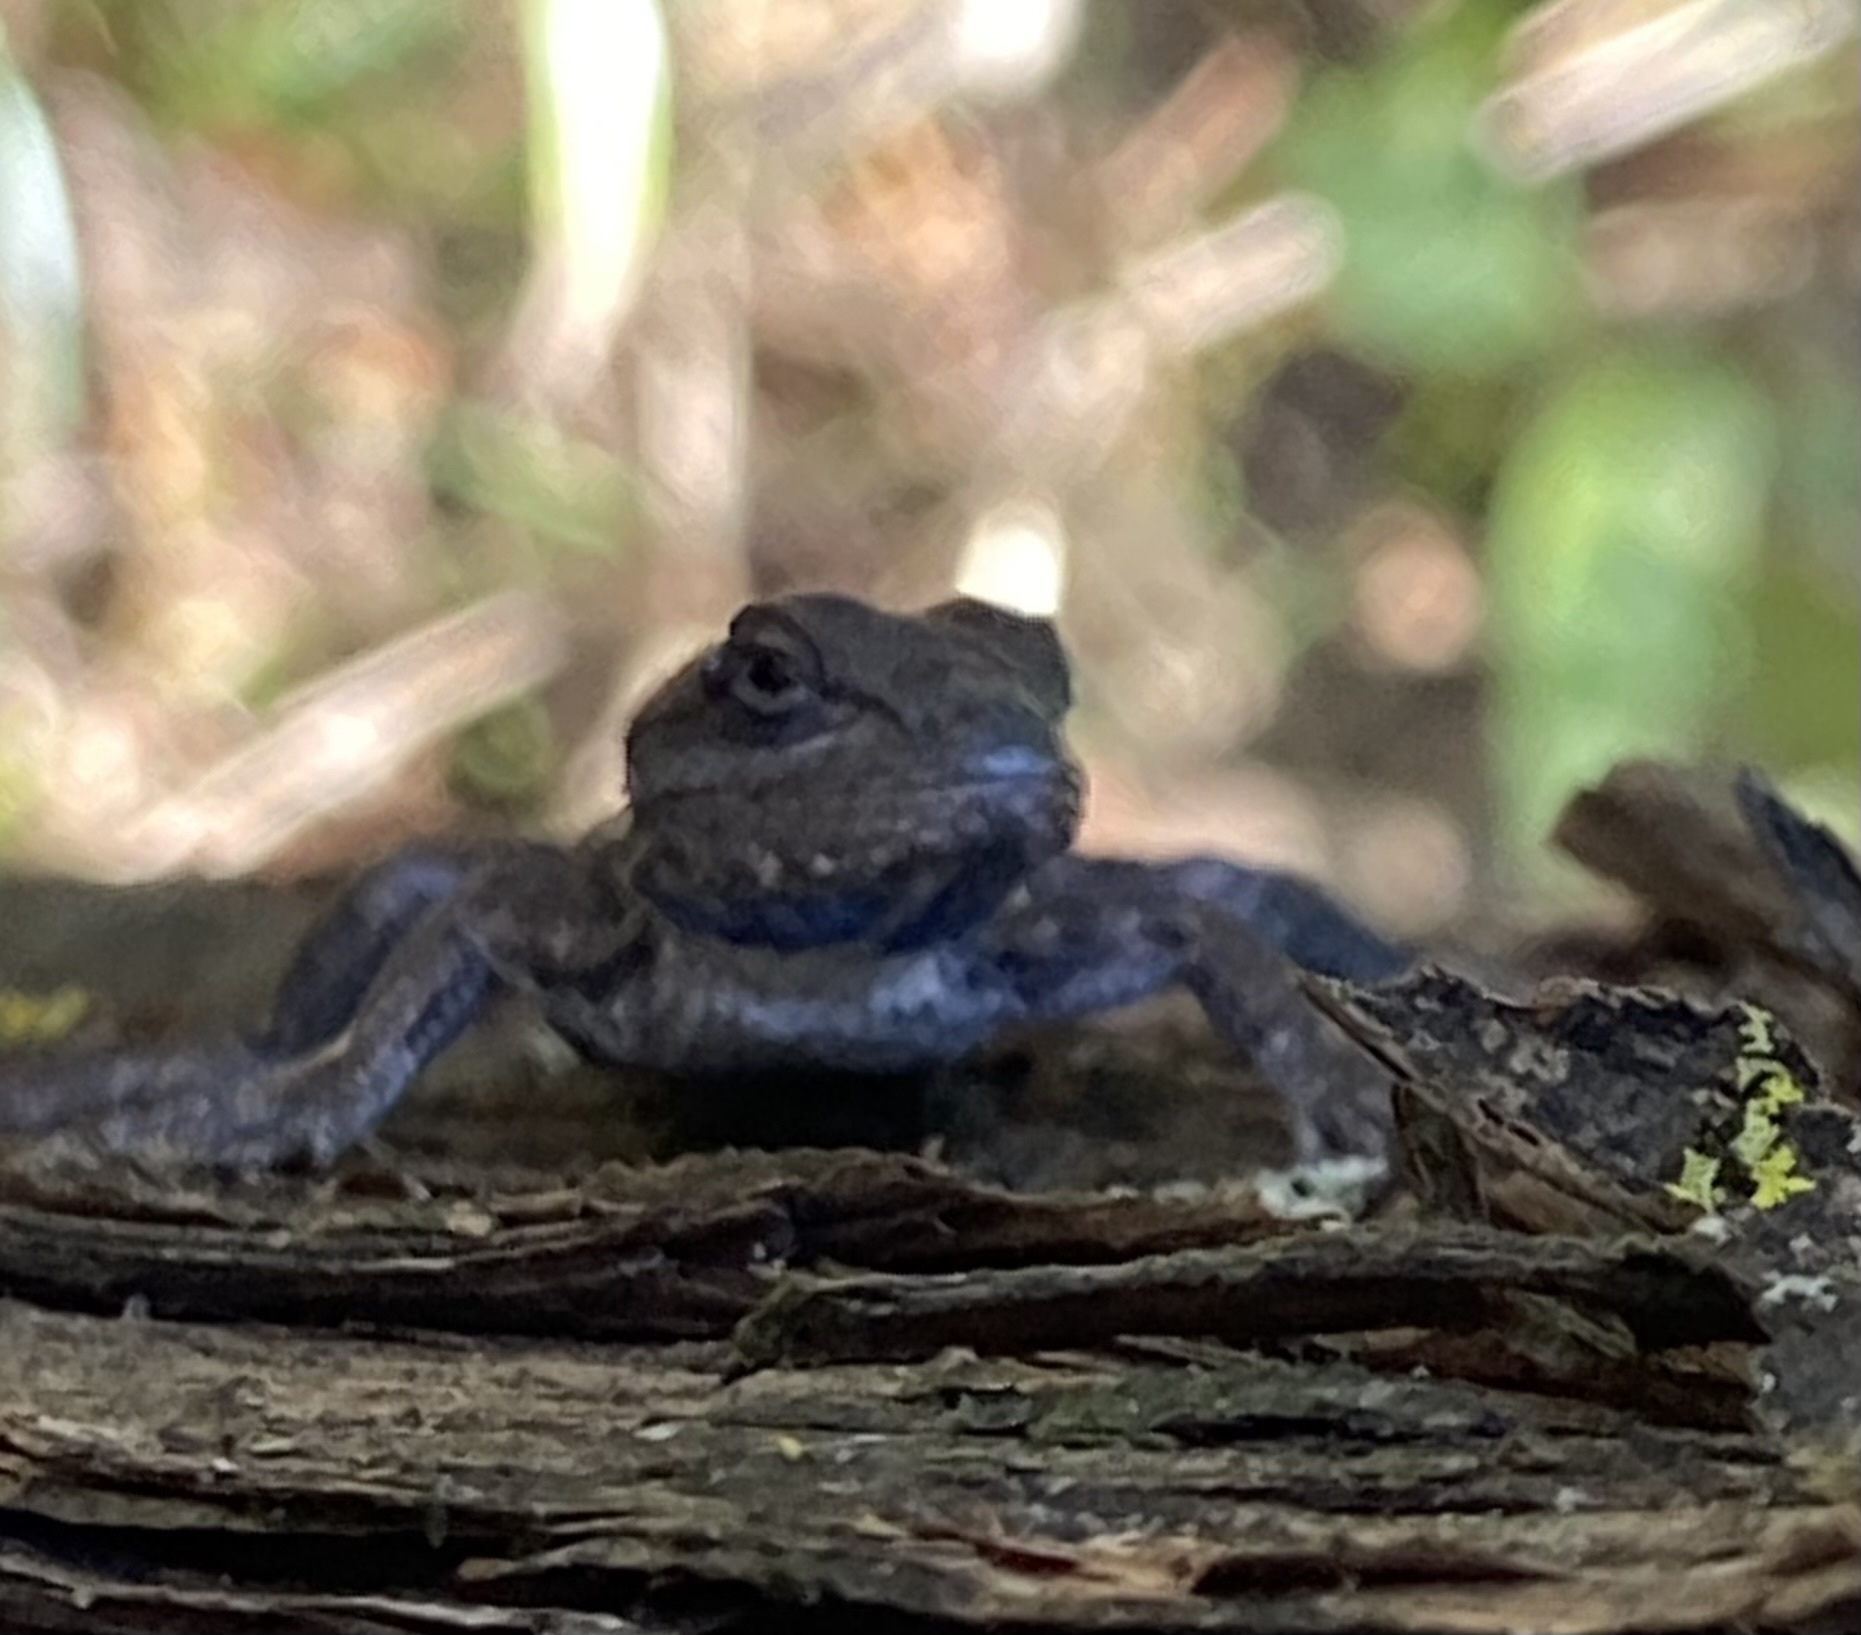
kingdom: Animalia
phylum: Chordata
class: Squamata
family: Phrynosomatidae
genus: Sceloporus
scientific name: Sceloporus consobrinus
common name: Southern prairie lizard
